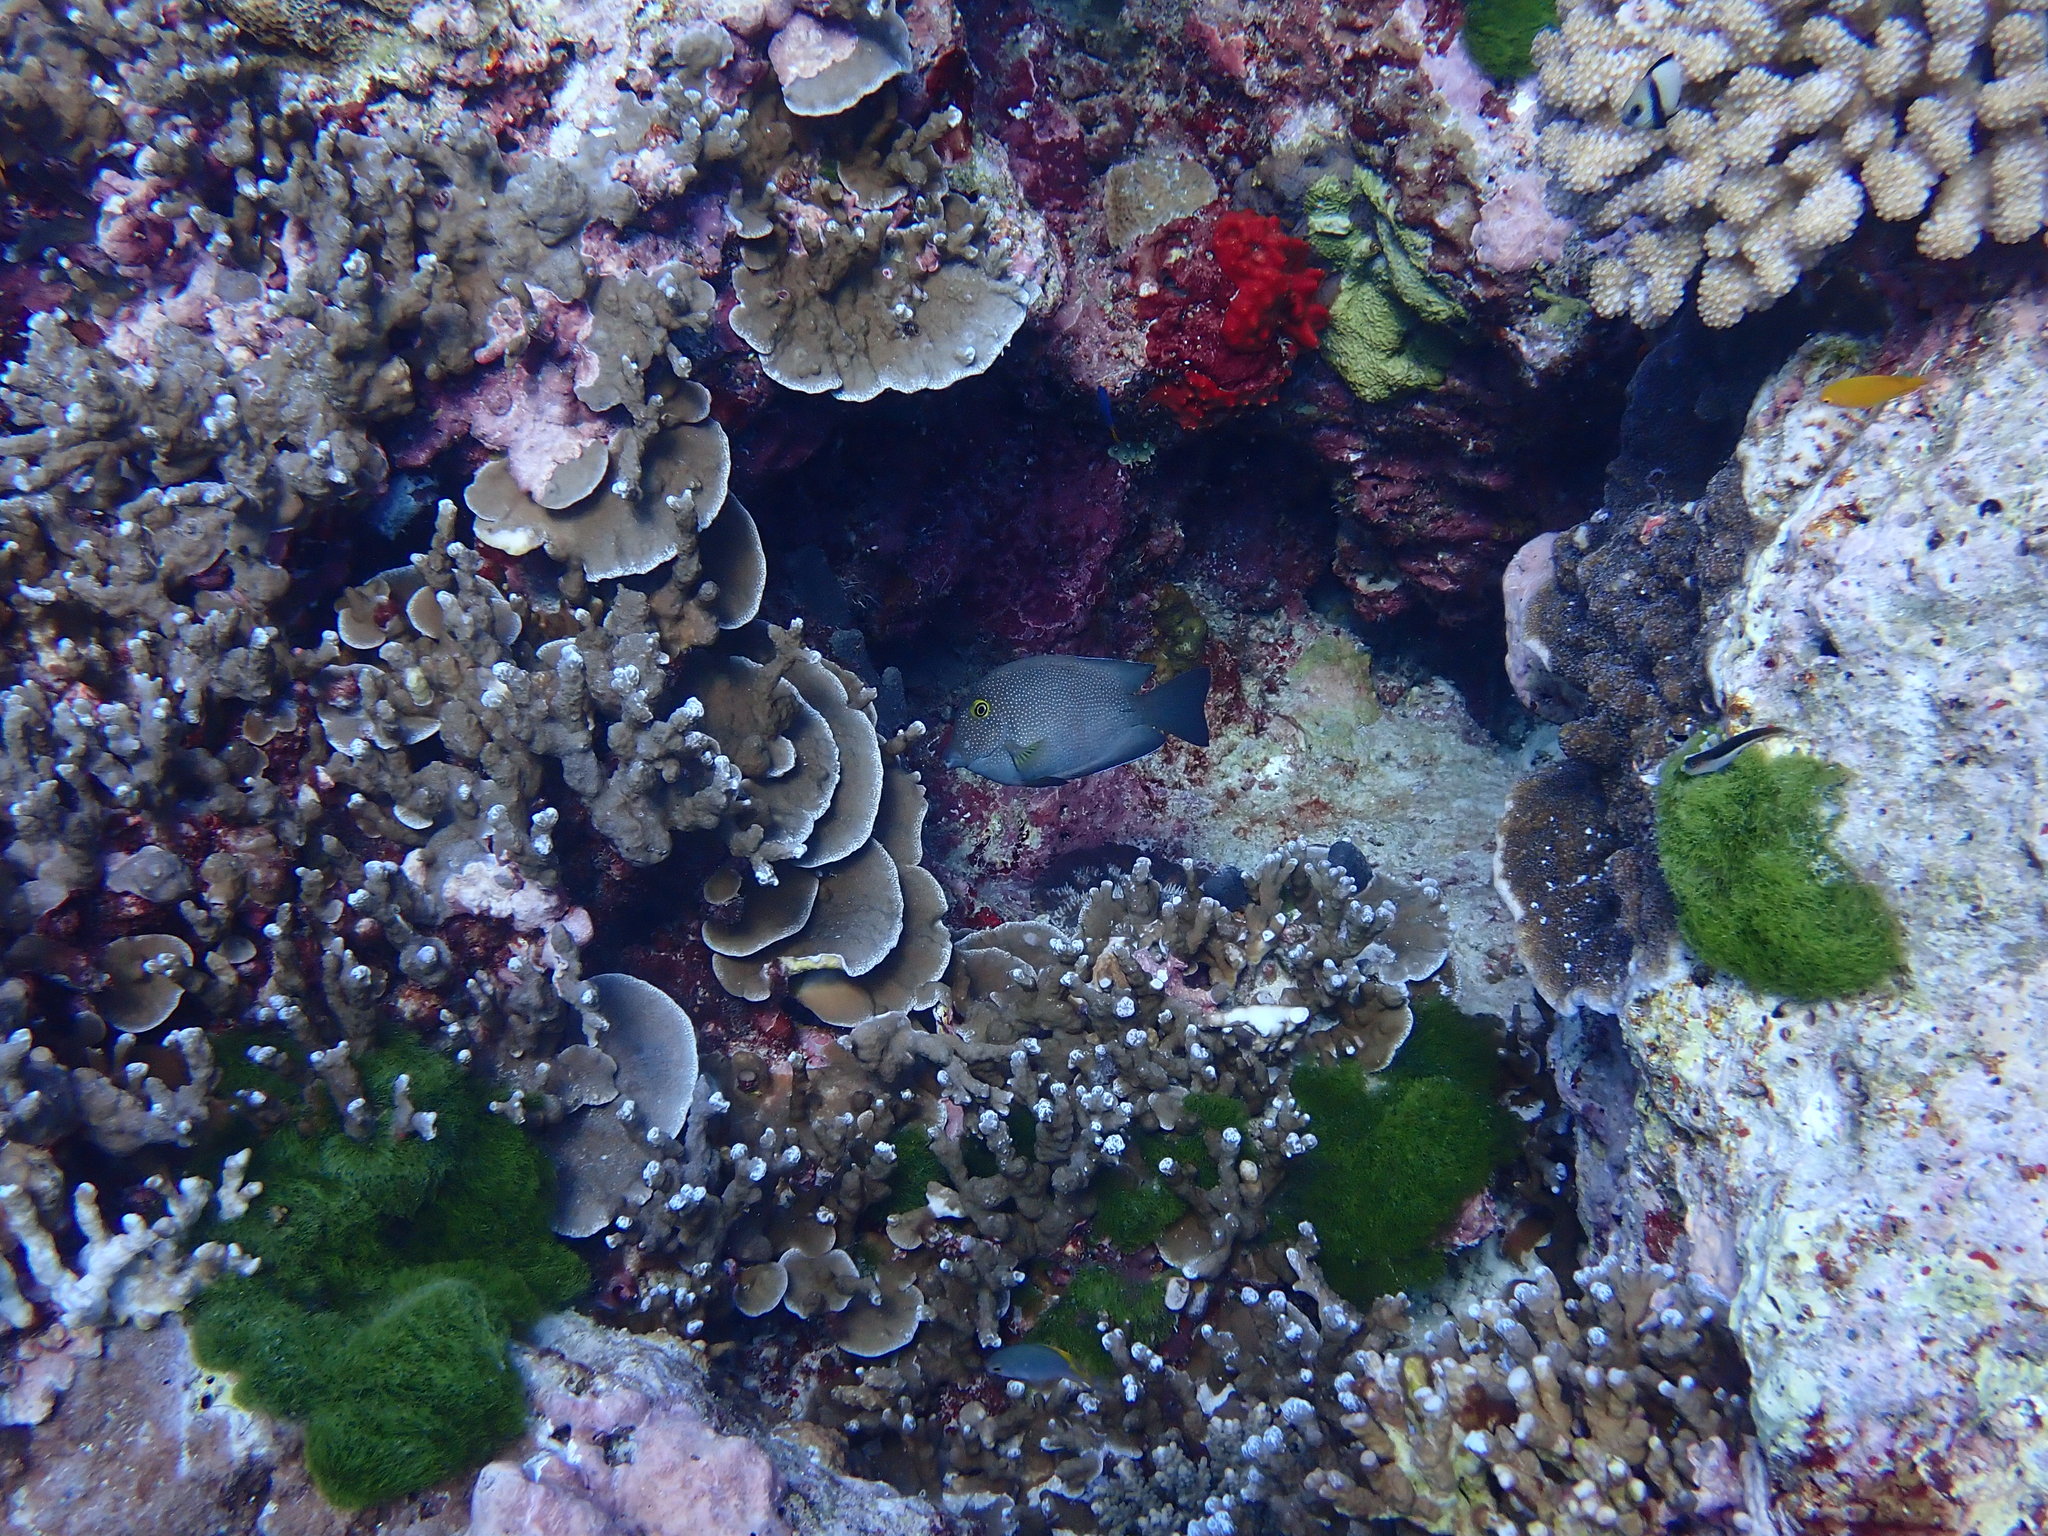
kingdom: Animalia
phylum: Chordata
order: Perciformes
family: Acanthuridae
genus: Ctenochaetus
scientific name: Ctenochaetus truncatus
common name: Indian gold-ring bristle-tooth
